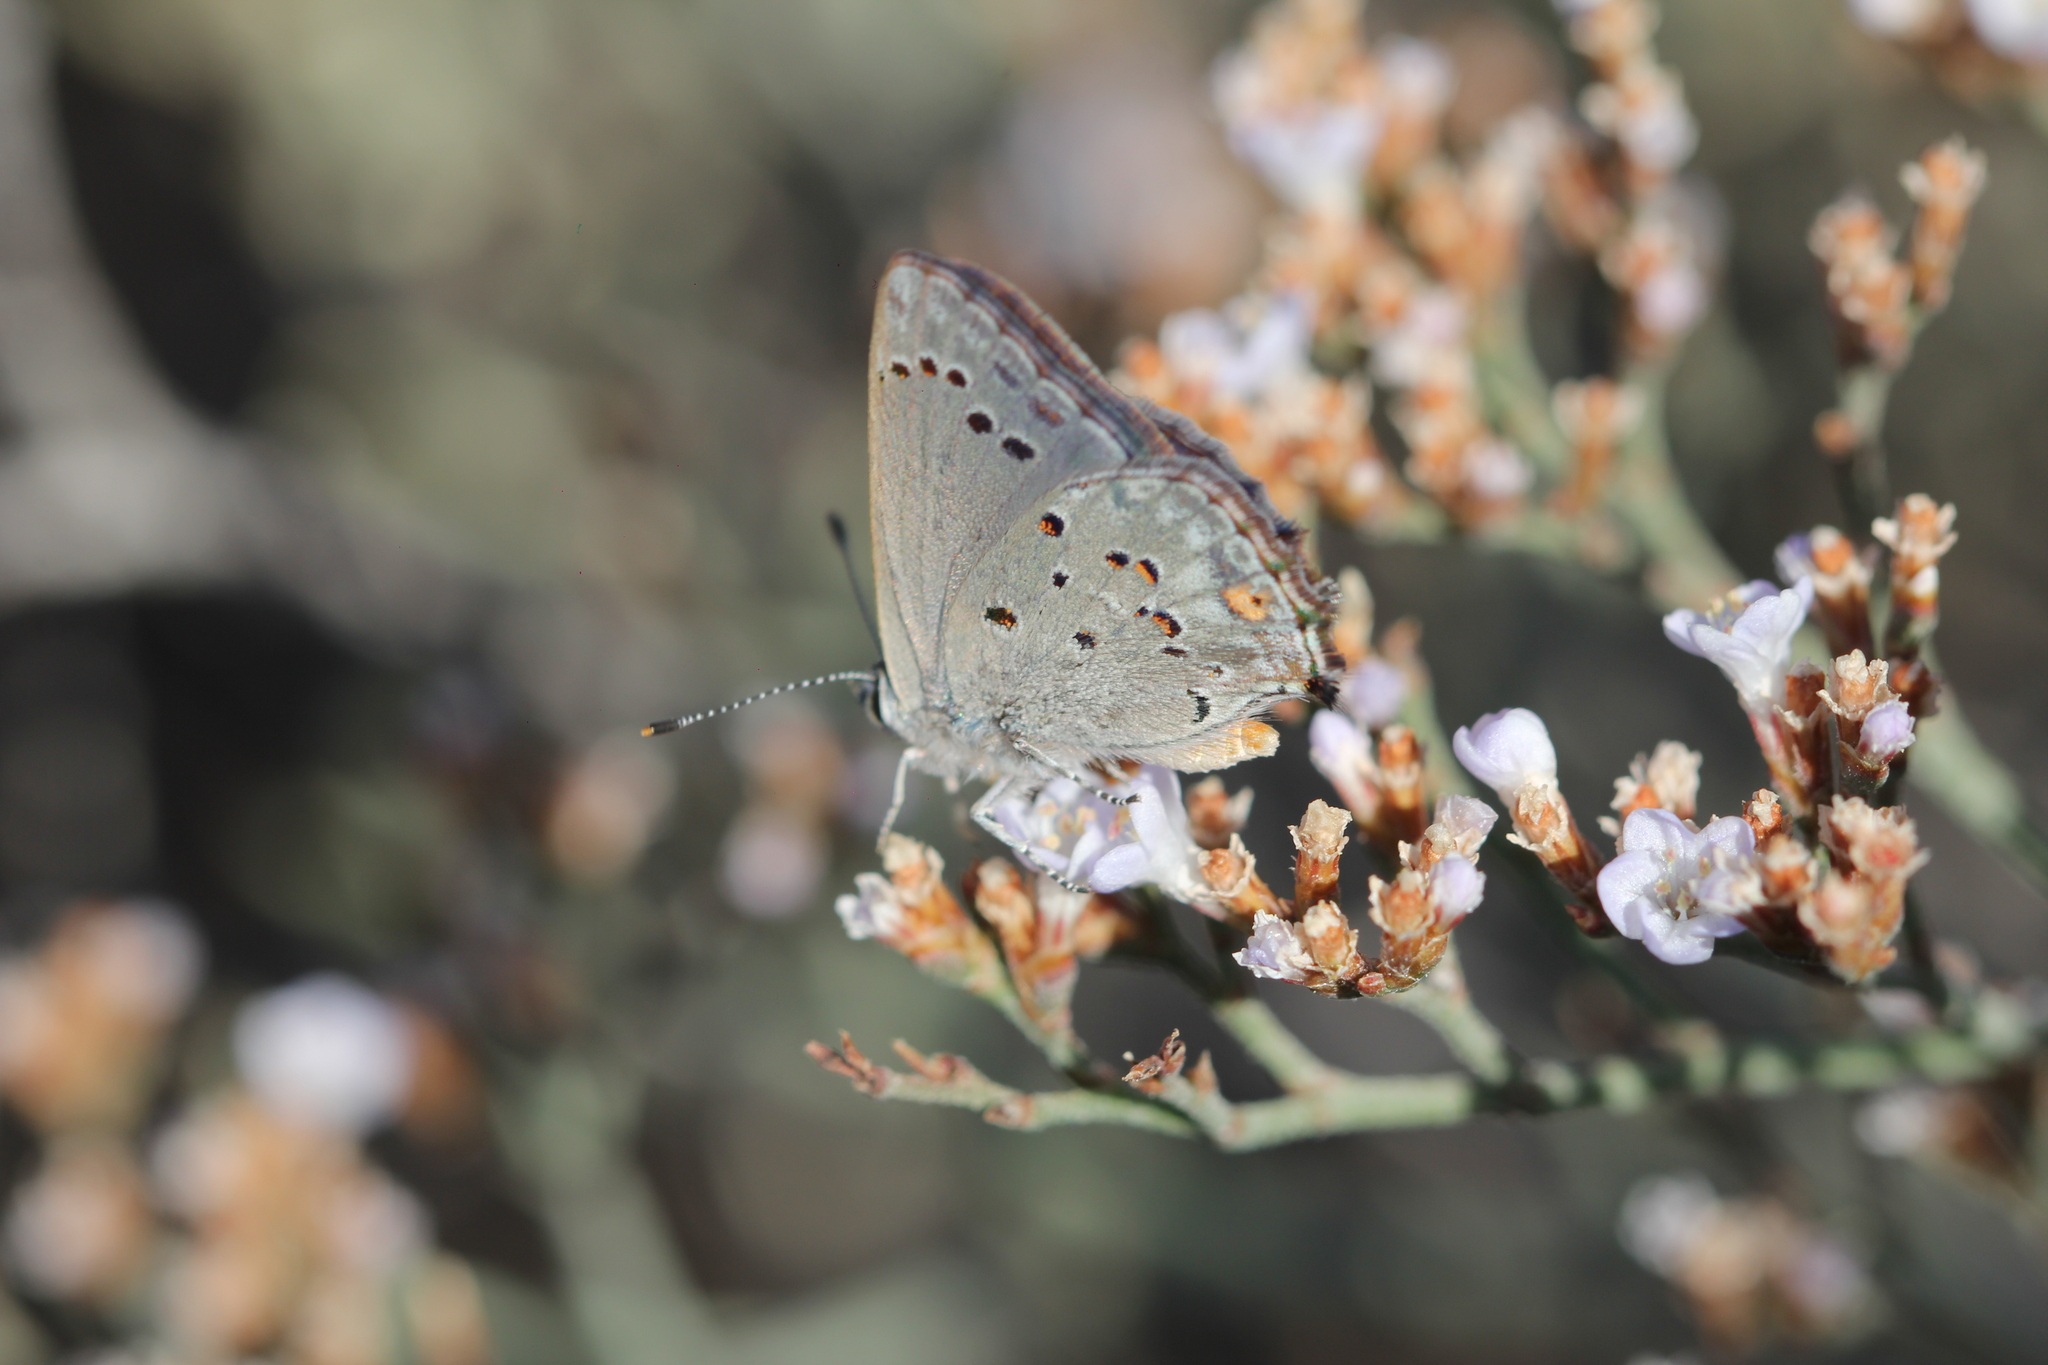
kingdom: Animalia
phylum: Arthropoda
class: Insecta
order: Lepidoptera
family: Lycaenidae
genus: Strymon
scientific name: Strymon eurytulus
